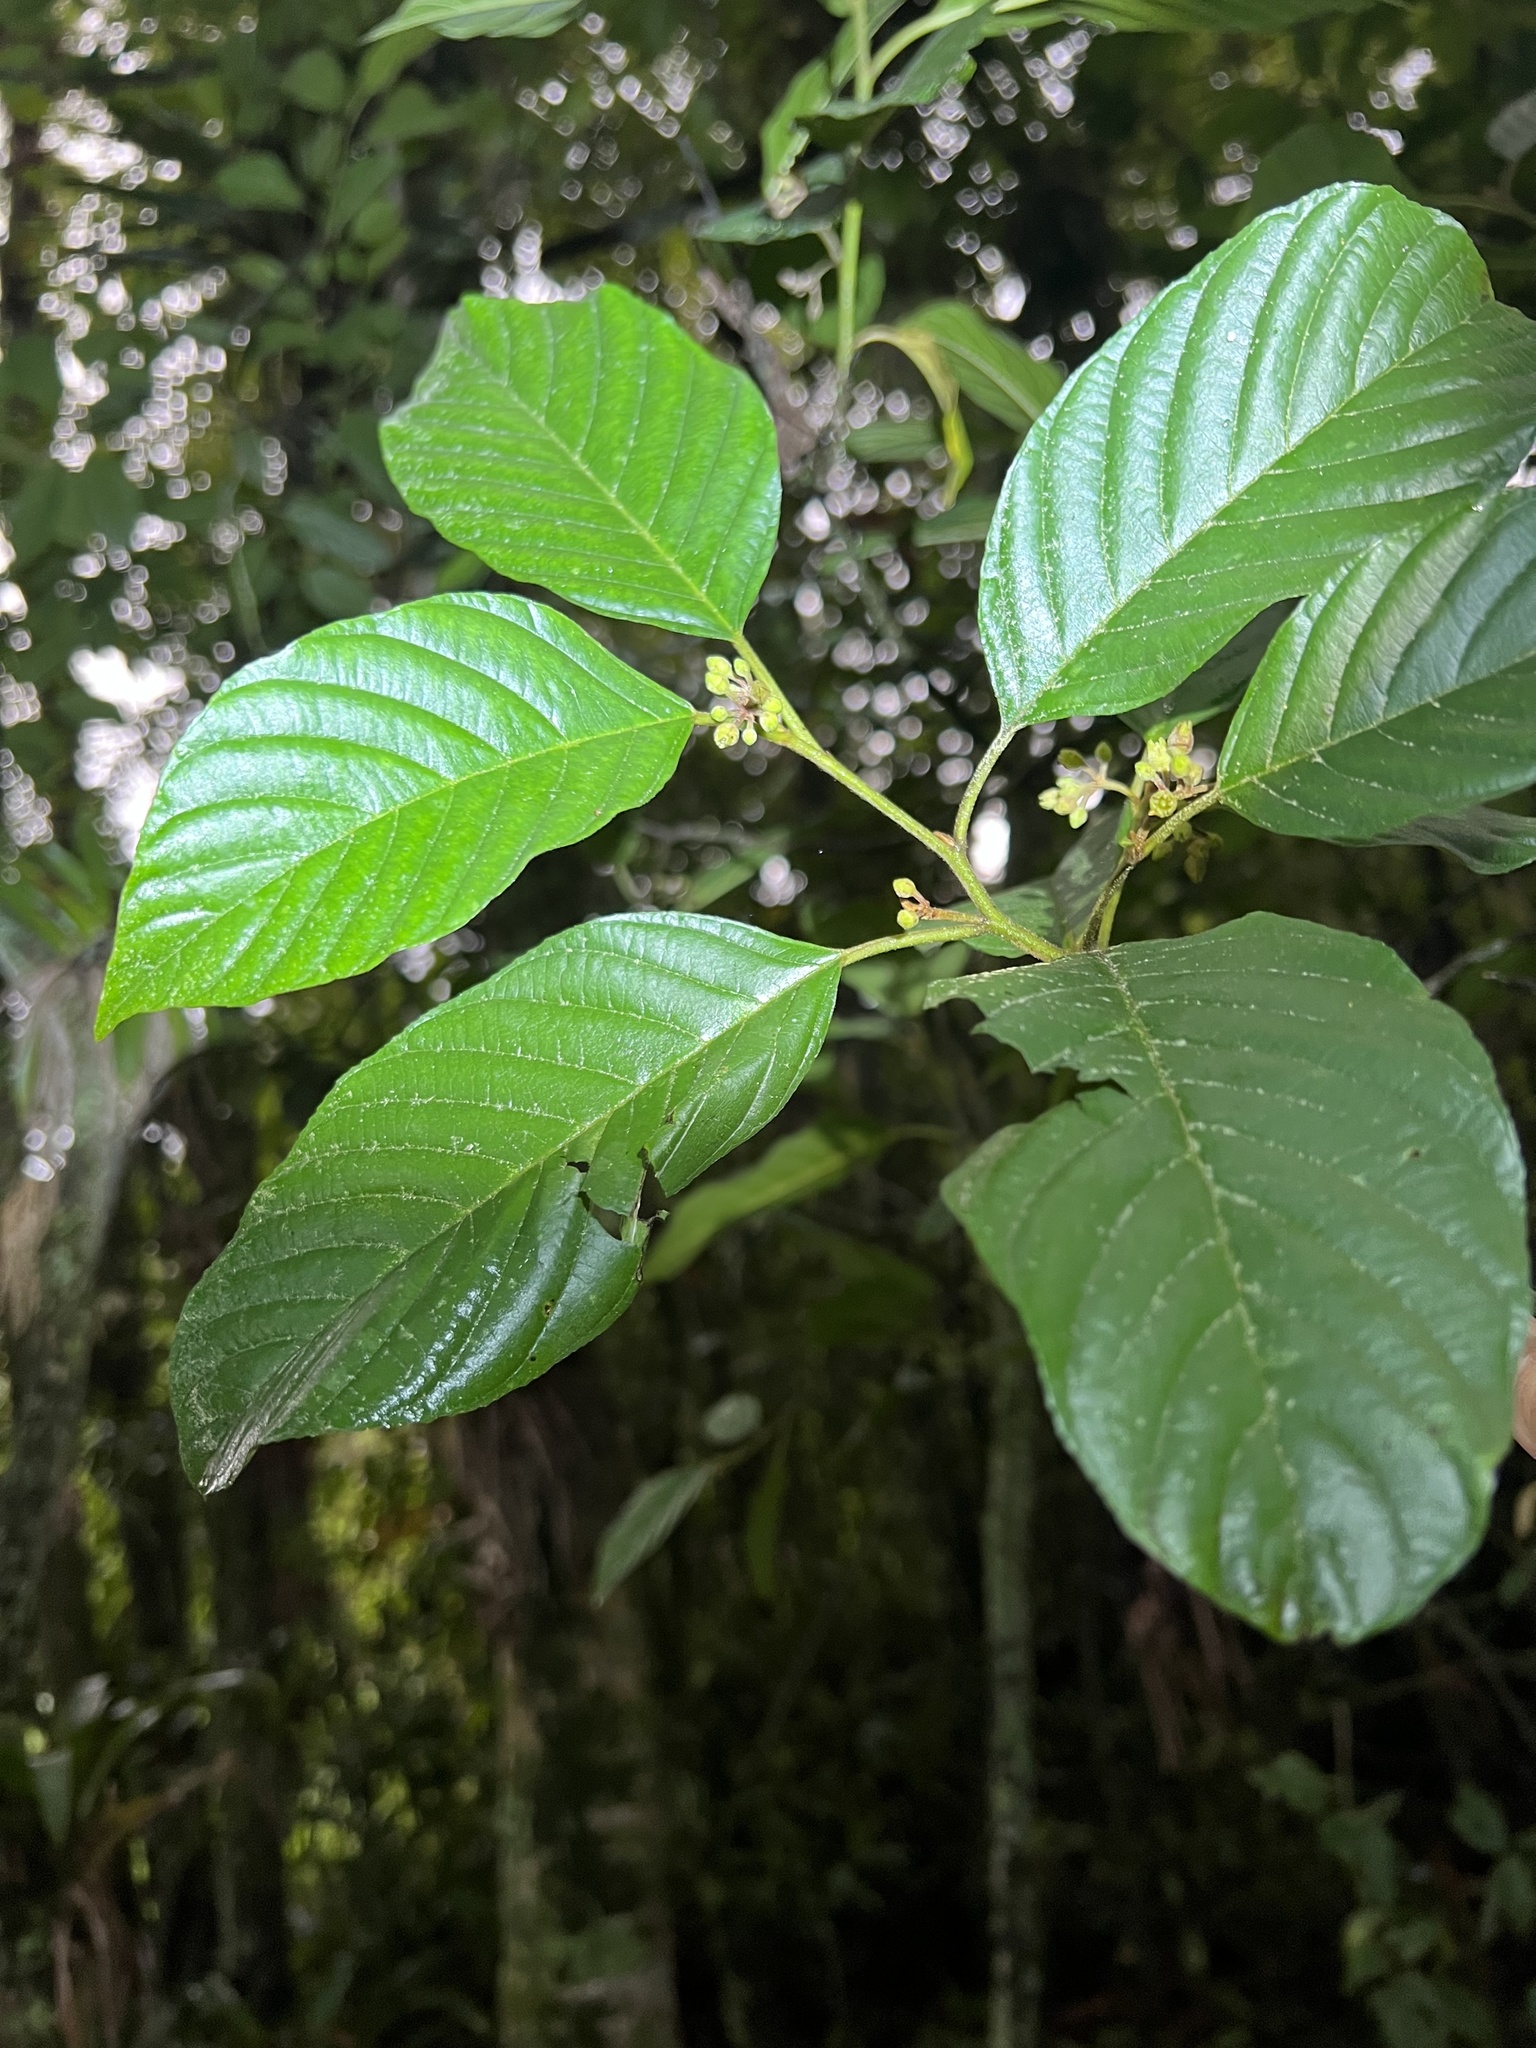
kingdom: Plantae
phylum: Tracheophyta
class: Magnoliopsida
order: Rosales
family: Rhamnaceae
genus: Frangula
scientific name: Frangula sphaerosperma
